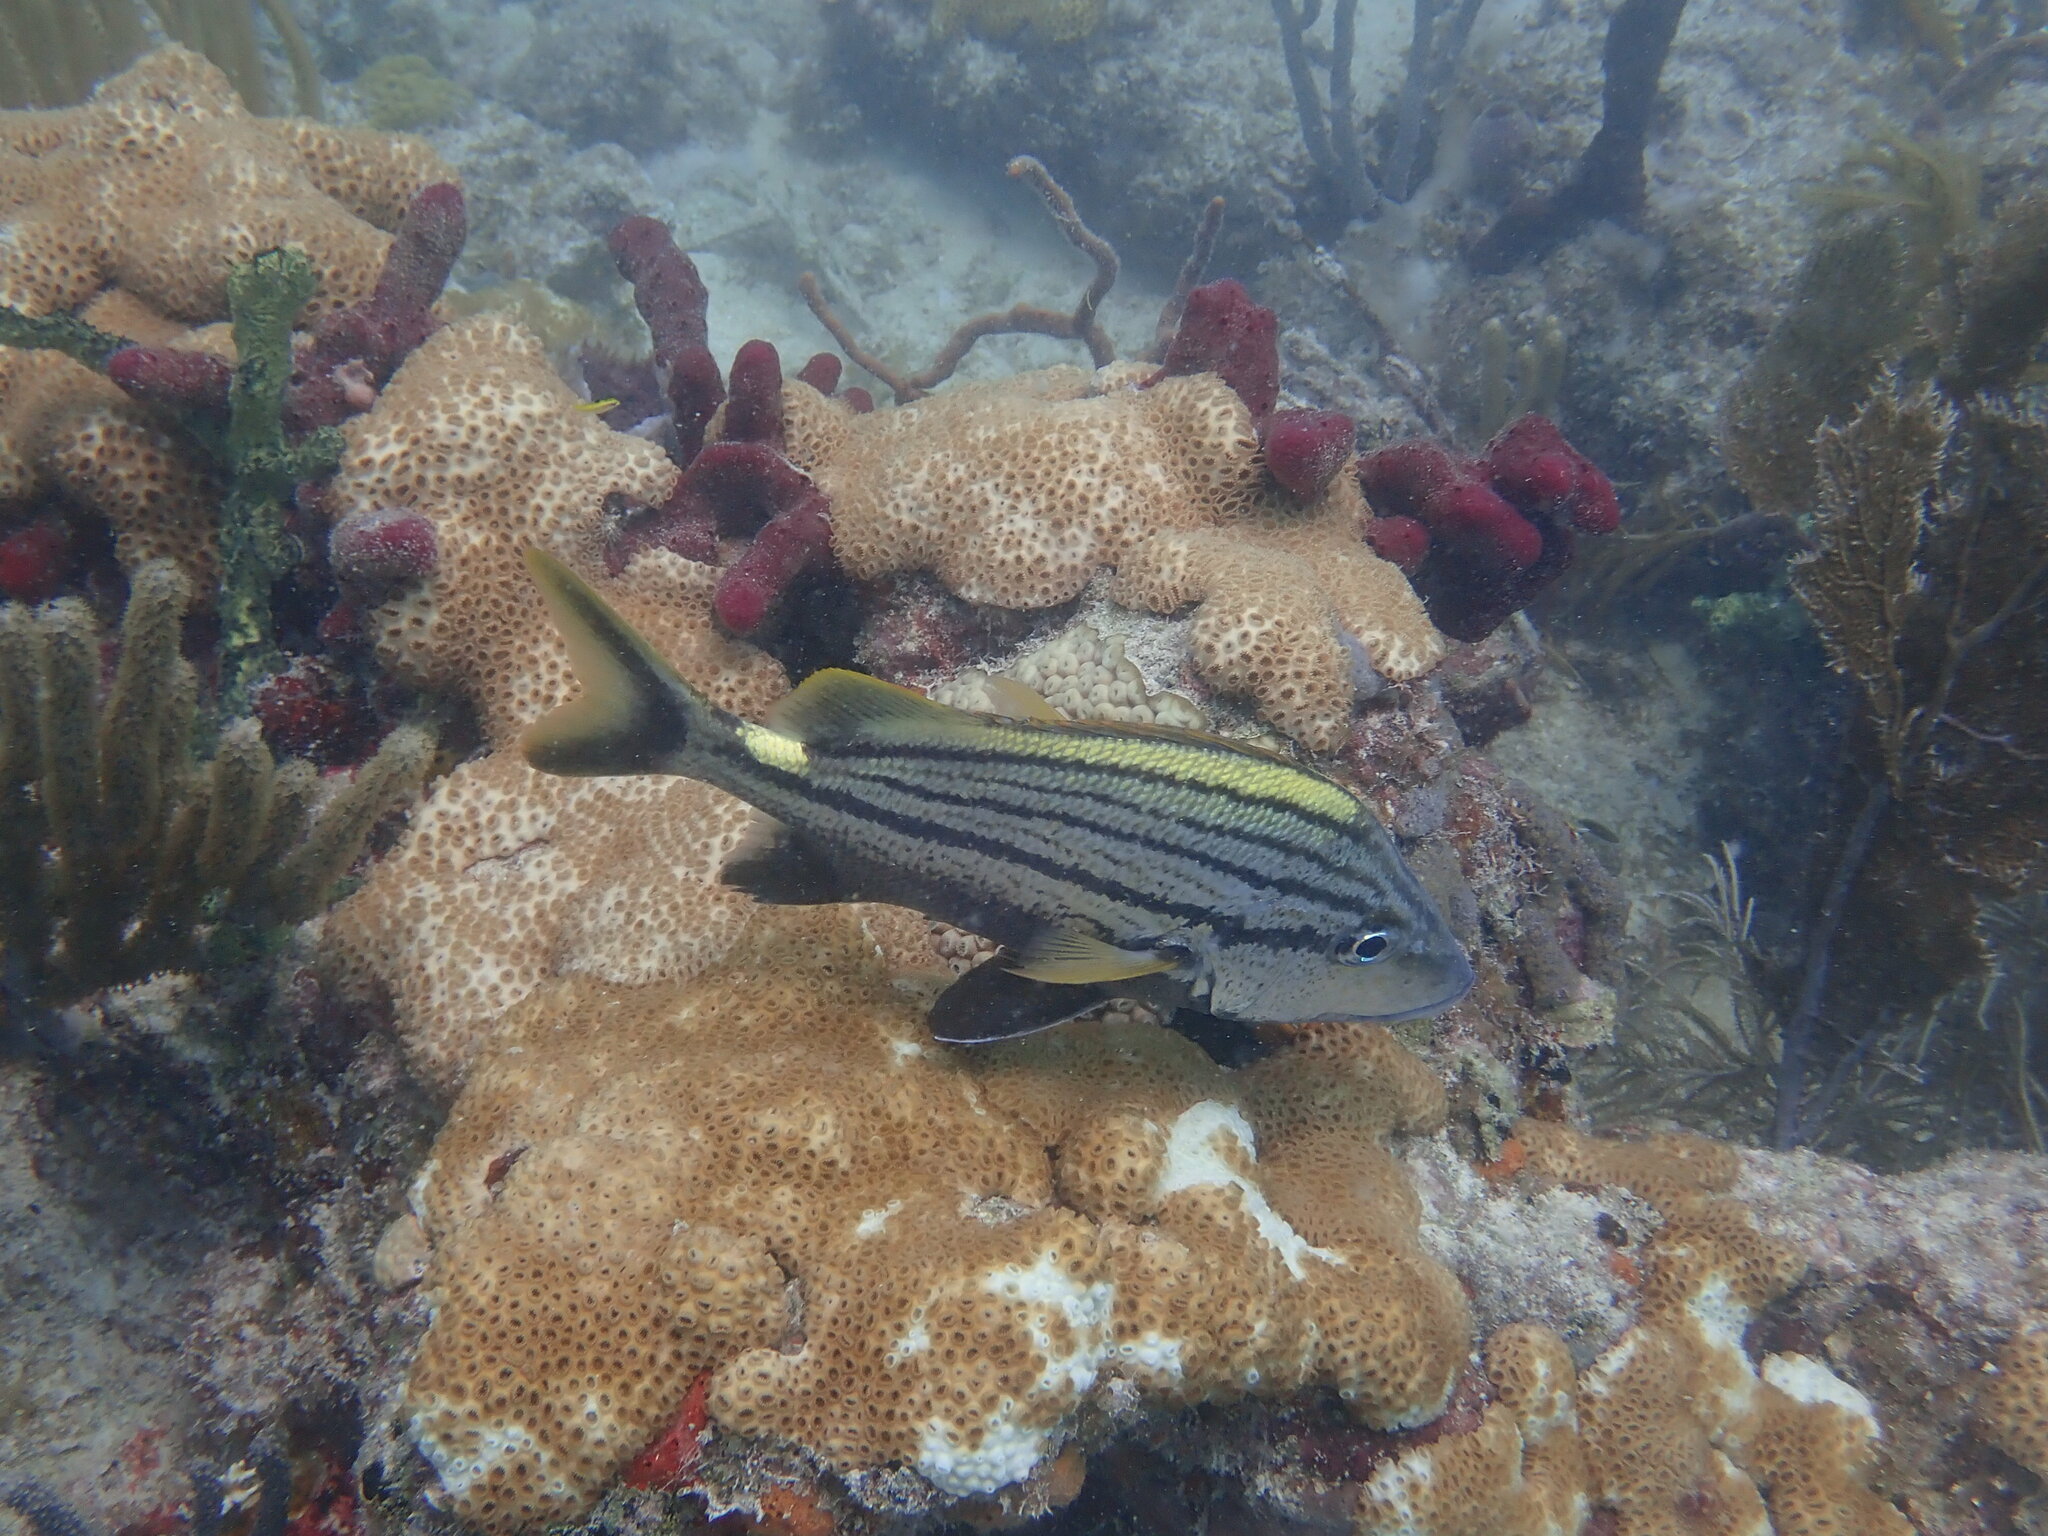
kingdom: Animalia
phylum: Chordata
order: Perciformes
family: Haemulidae
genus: Haemulon
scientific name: Haemulon macrostomum
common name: Spanish grunt
